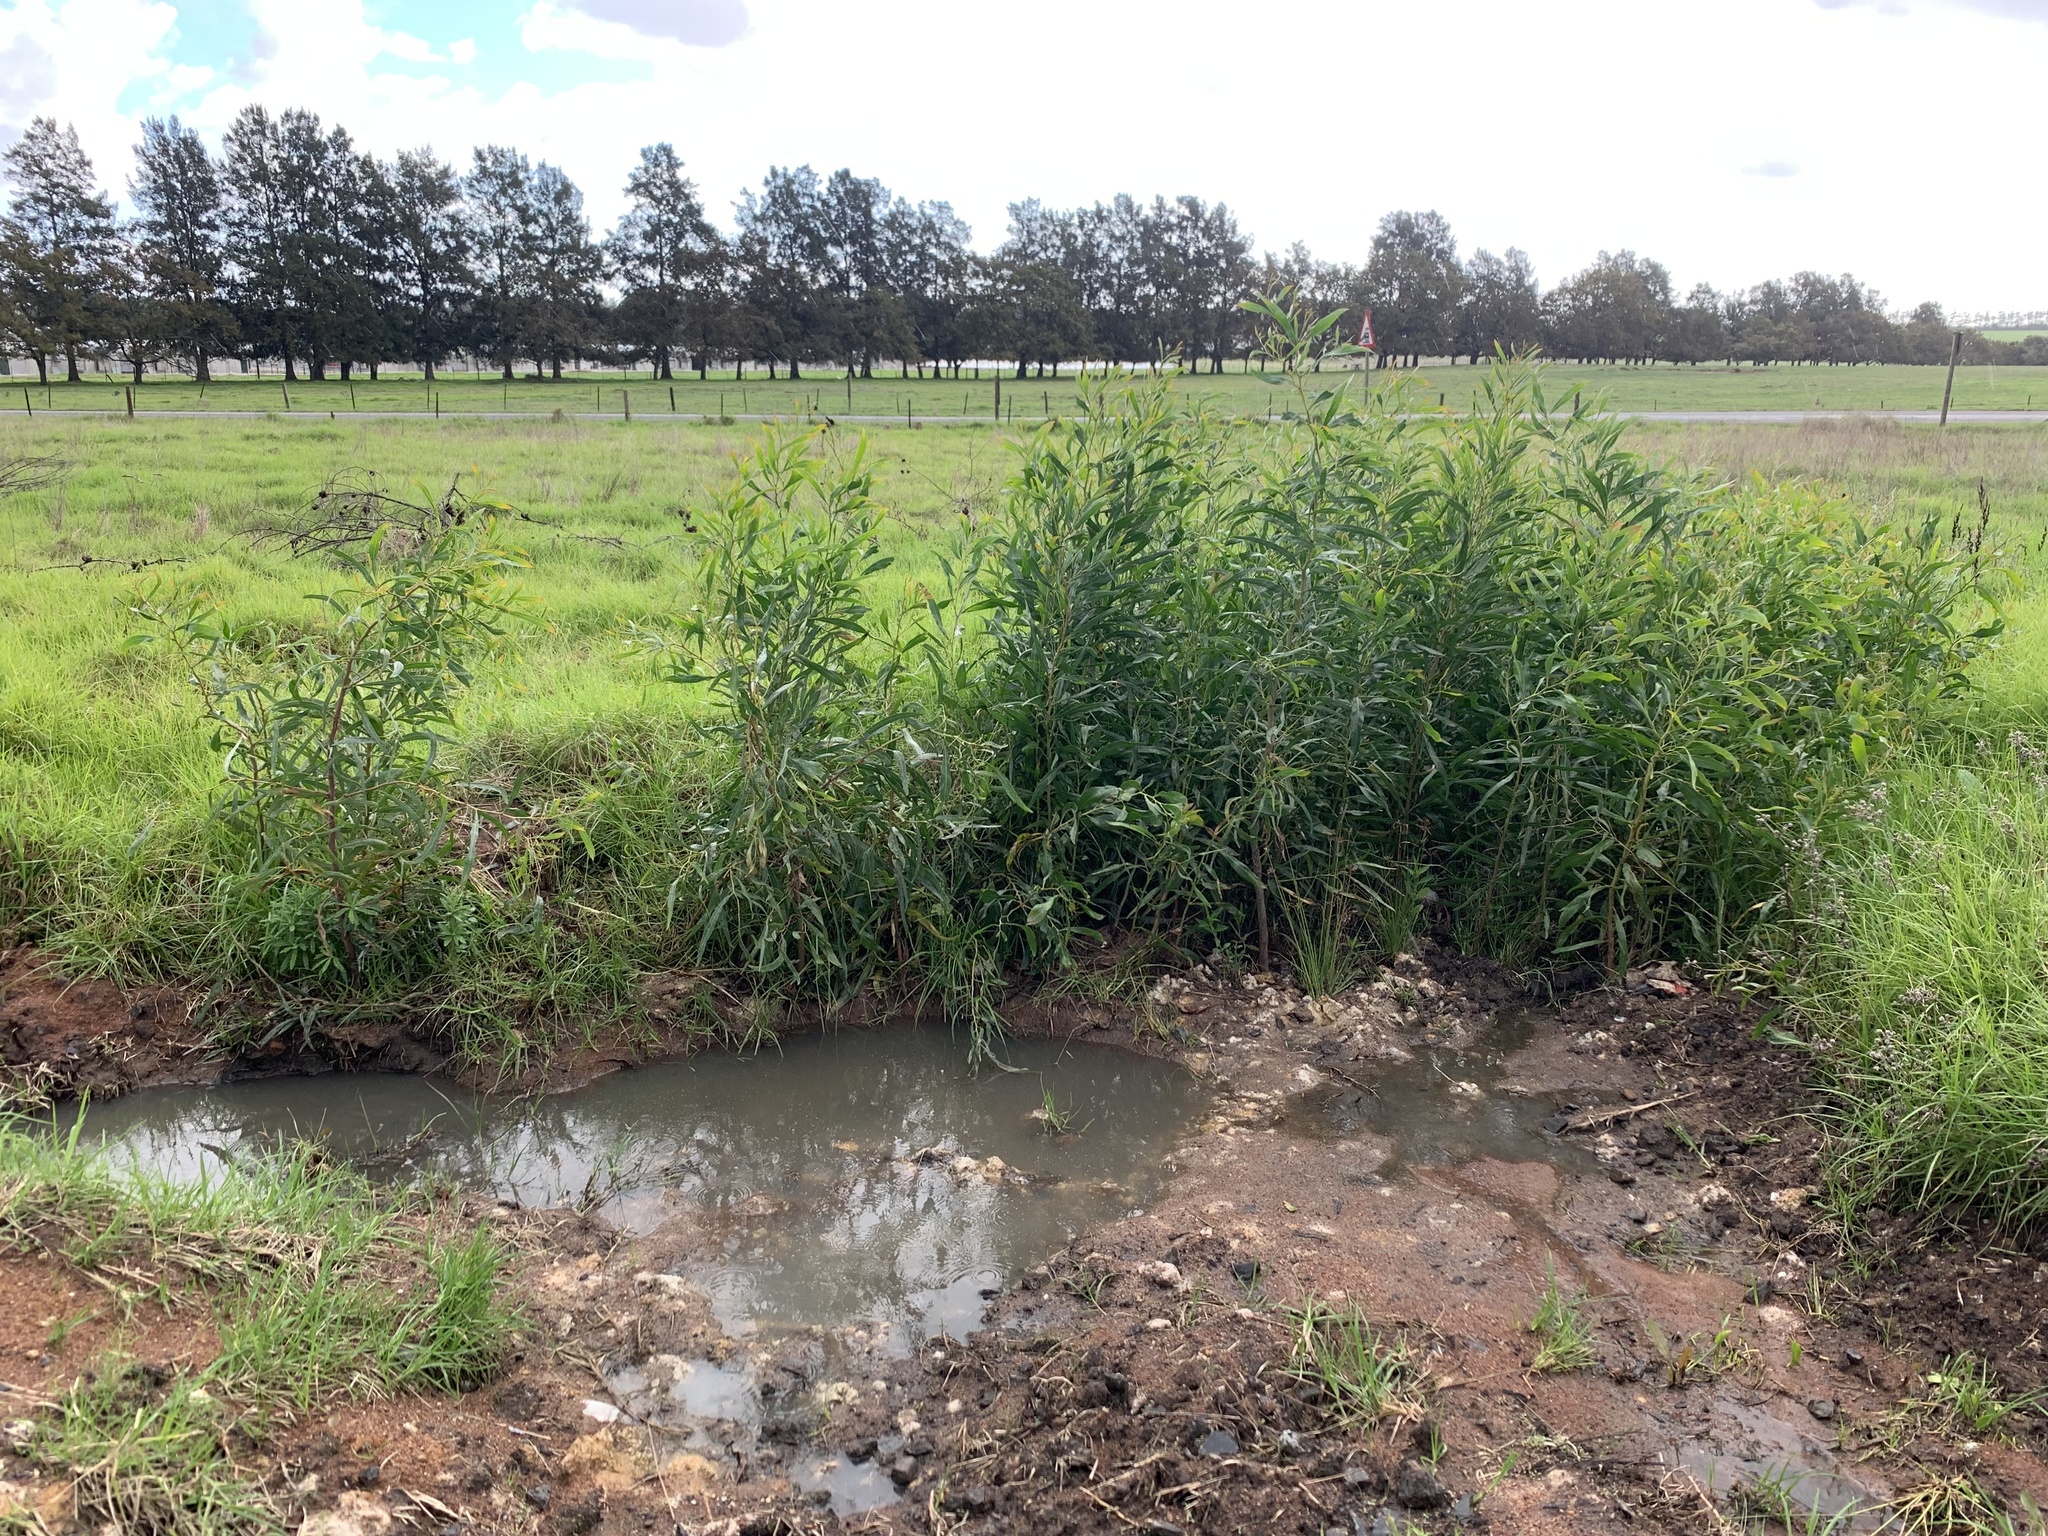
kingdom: Plantae
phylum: Tracheophyta
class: Magnoliopsida
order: Fabales
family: Fabaceae
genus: Acacia
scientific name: Acacia saligna
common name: Orange wattle
